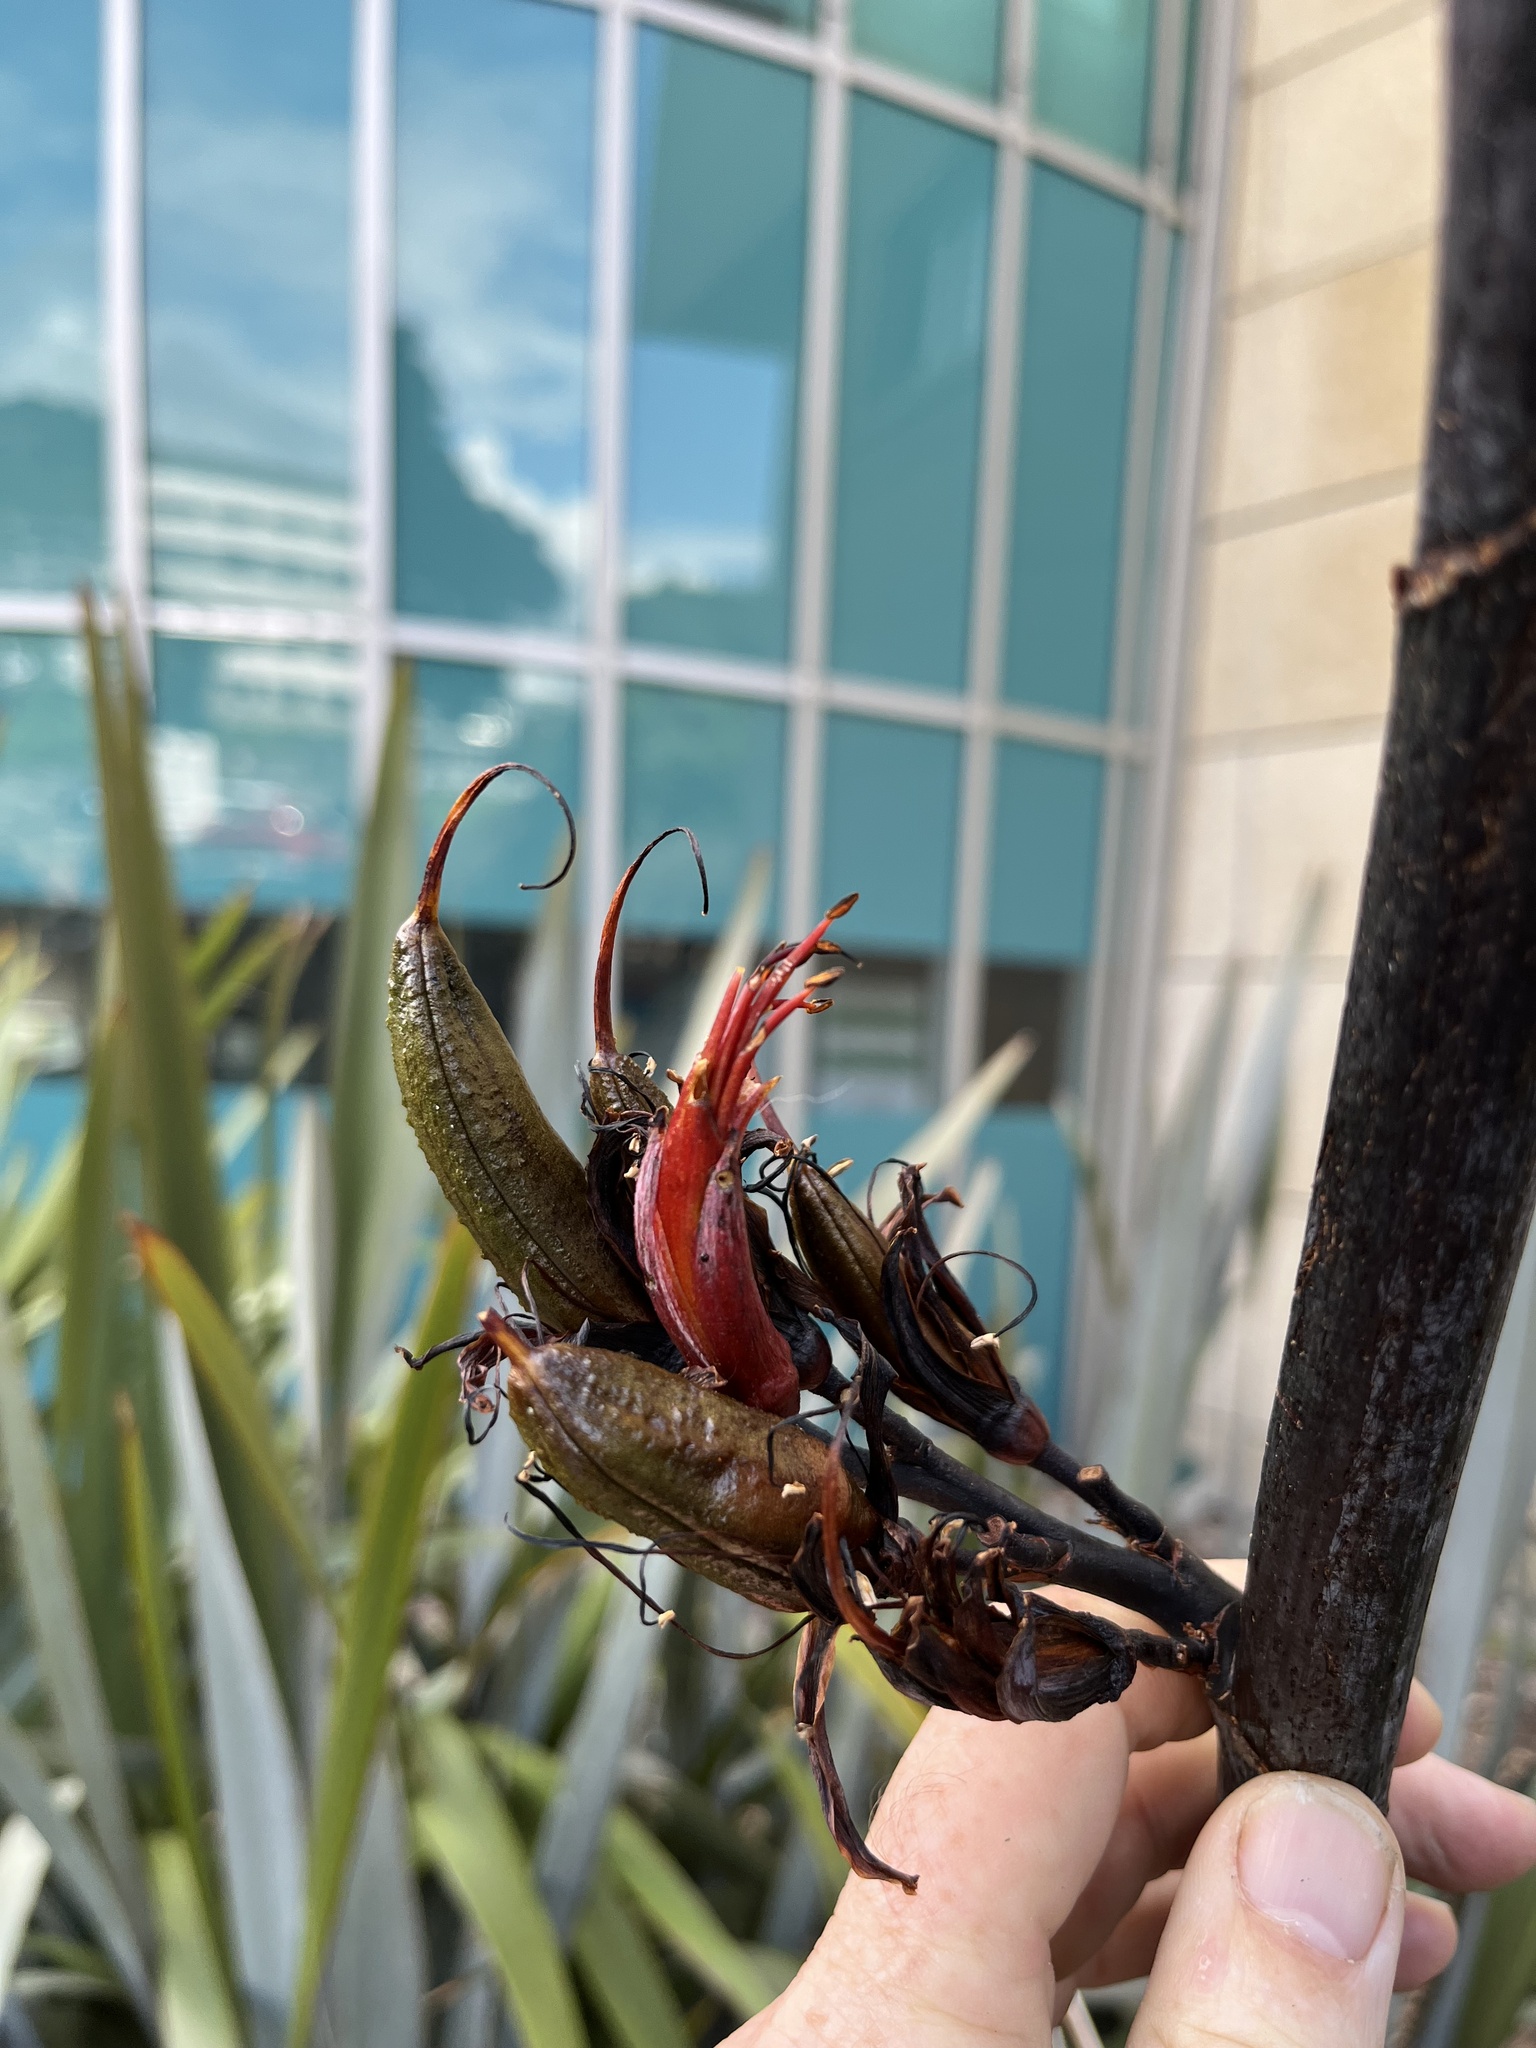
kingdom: Plantae
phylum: Tracheophyta
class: Liliopsida
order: Asparagales
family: Asphodelaceae
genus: Phormium
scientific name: Phormium tenax
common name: New zealand flax
